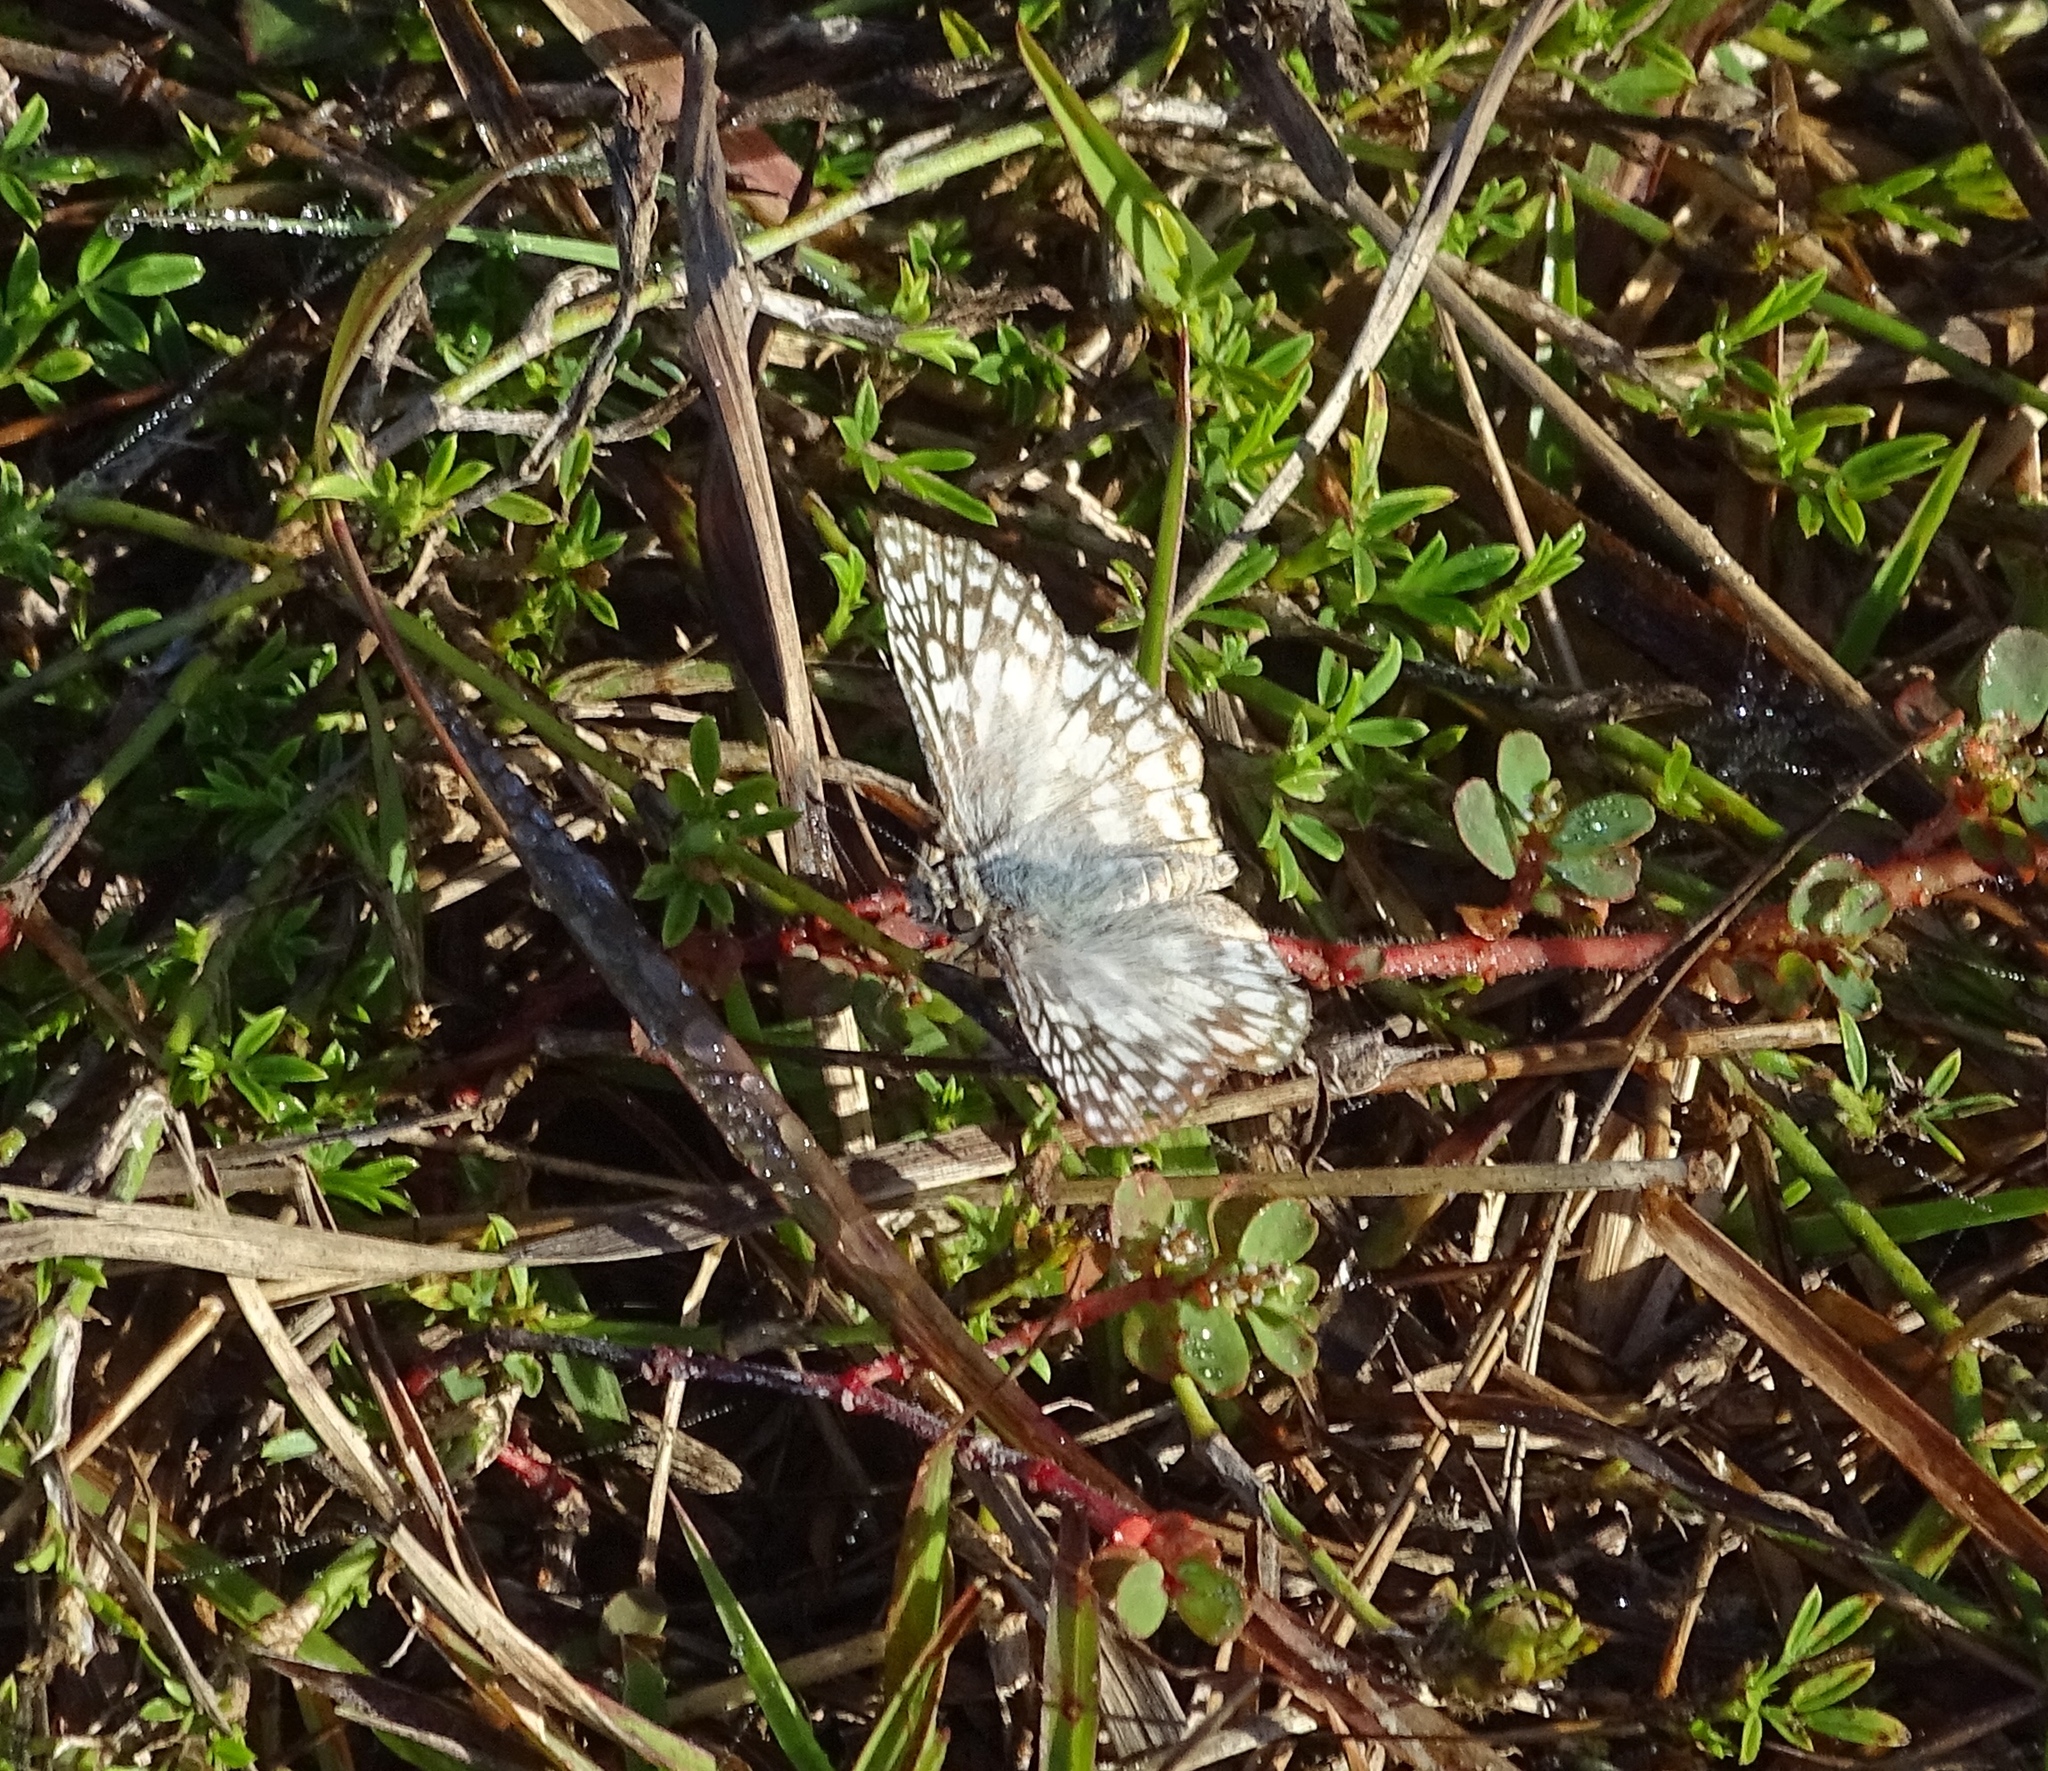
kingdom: Animalia
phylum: Arthropoda
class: Insecta
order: Lepidoptera
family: Hesperiidae
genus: Pyrgus
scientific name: Pyrgus oileus
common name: Tropical checkered-skipper
